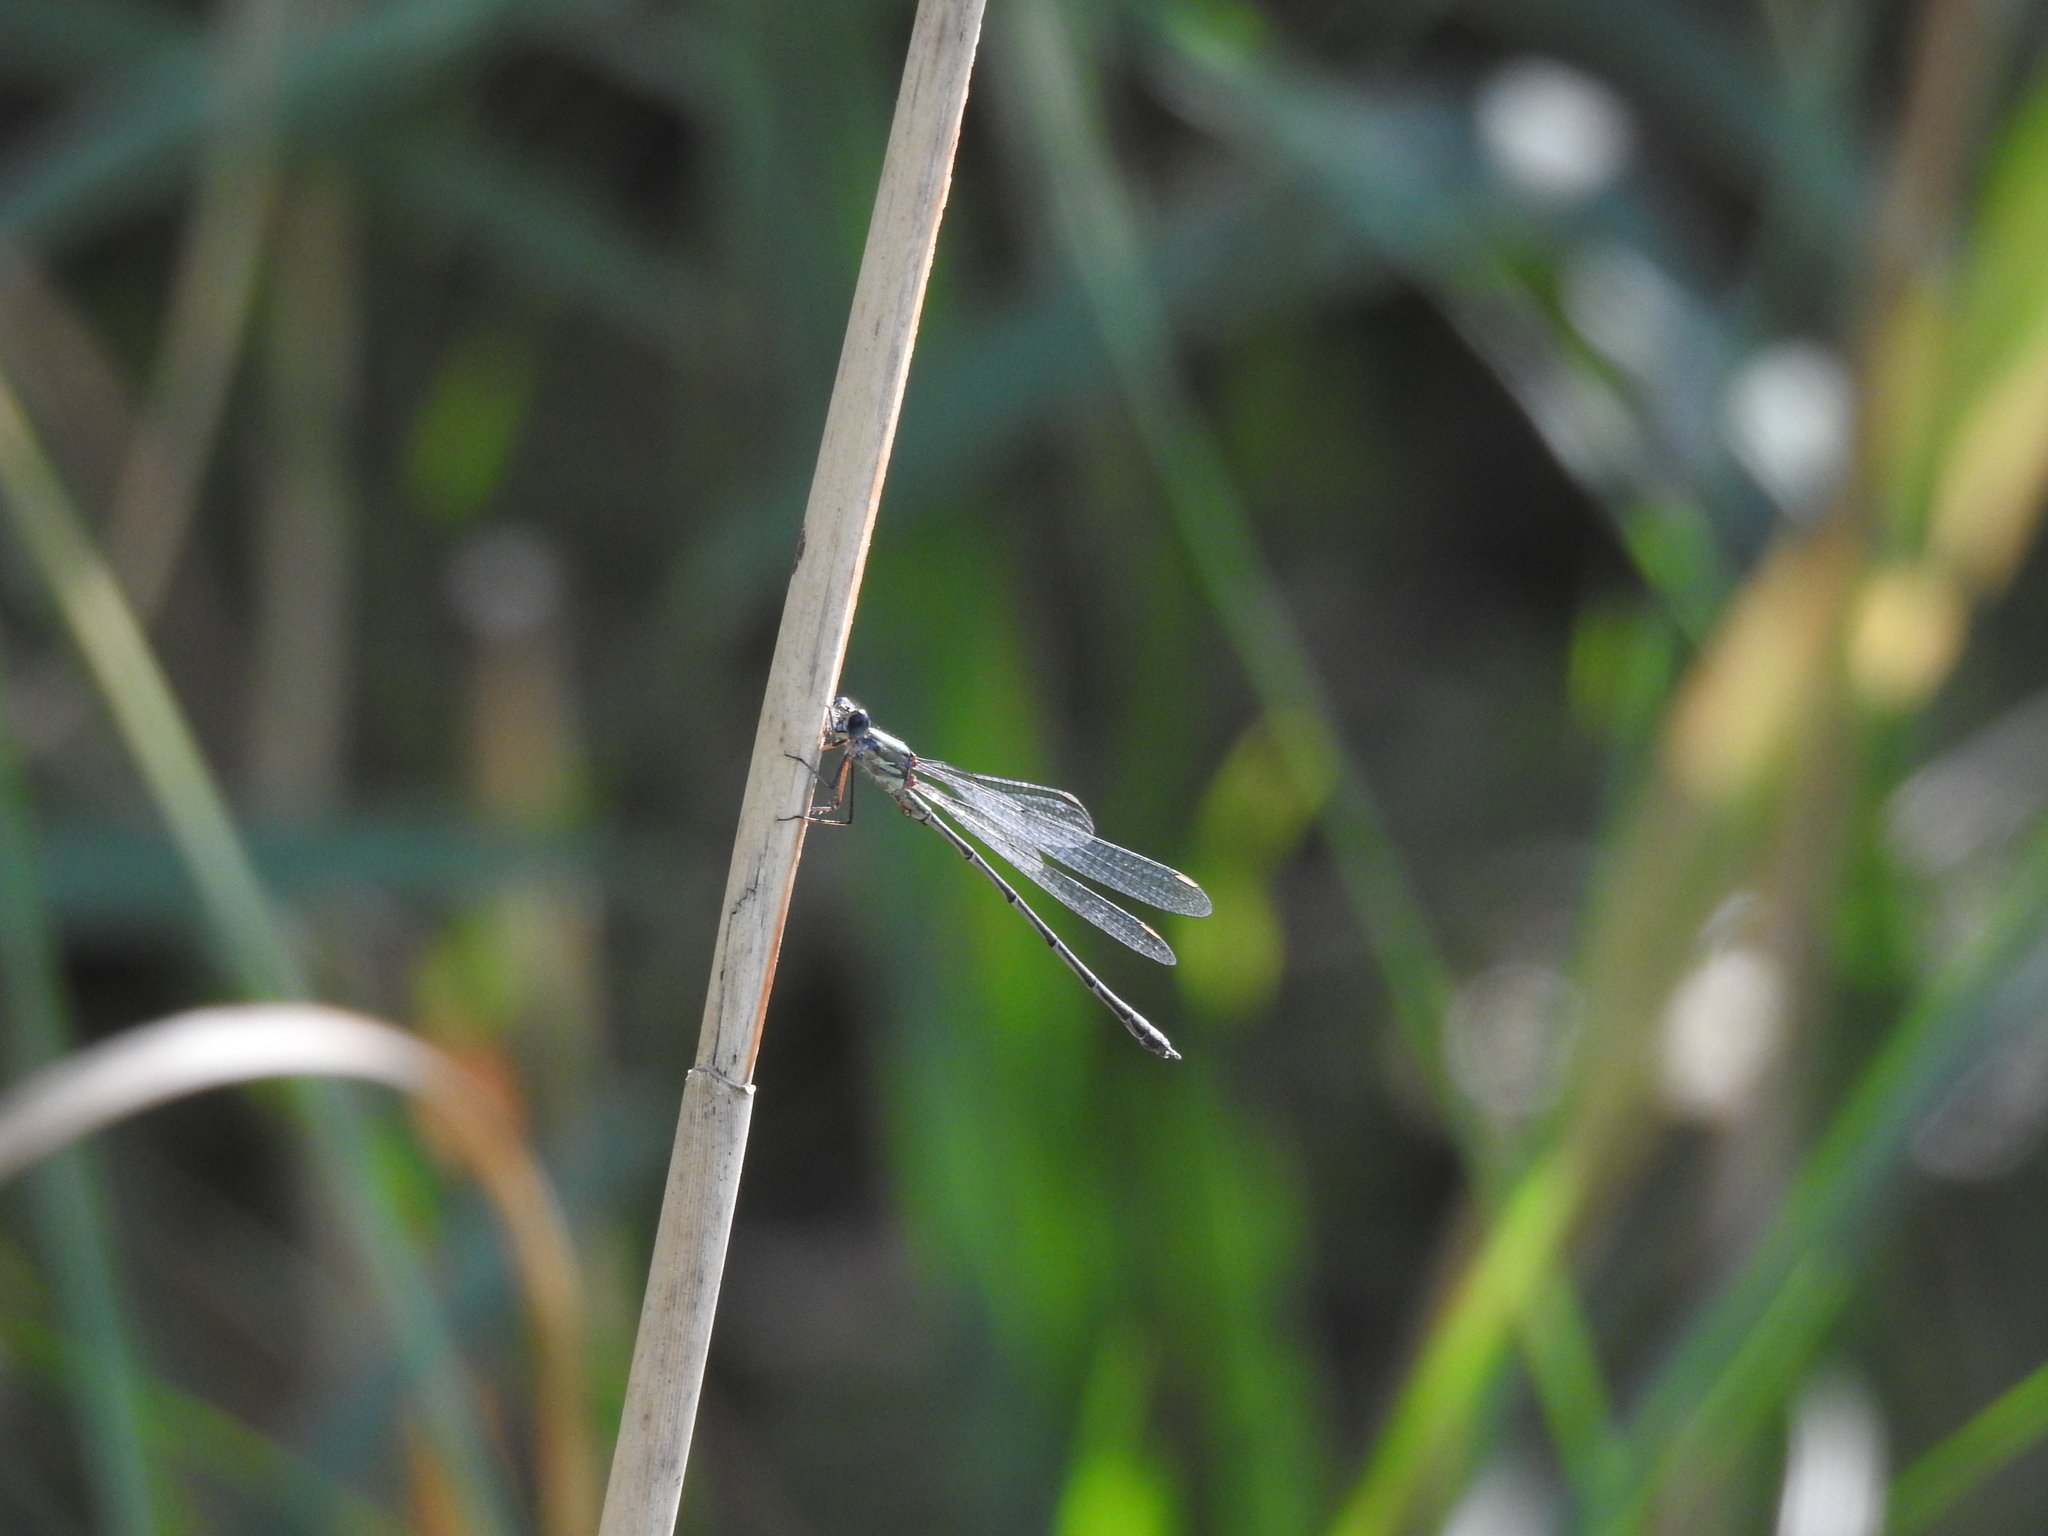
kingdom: Animalia
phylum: Arthropoda
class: Insecta
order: Odonata
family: Lestidae
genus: Chalcolestes
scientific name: Chalcolestes viridis
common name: Green emerald damselfly
